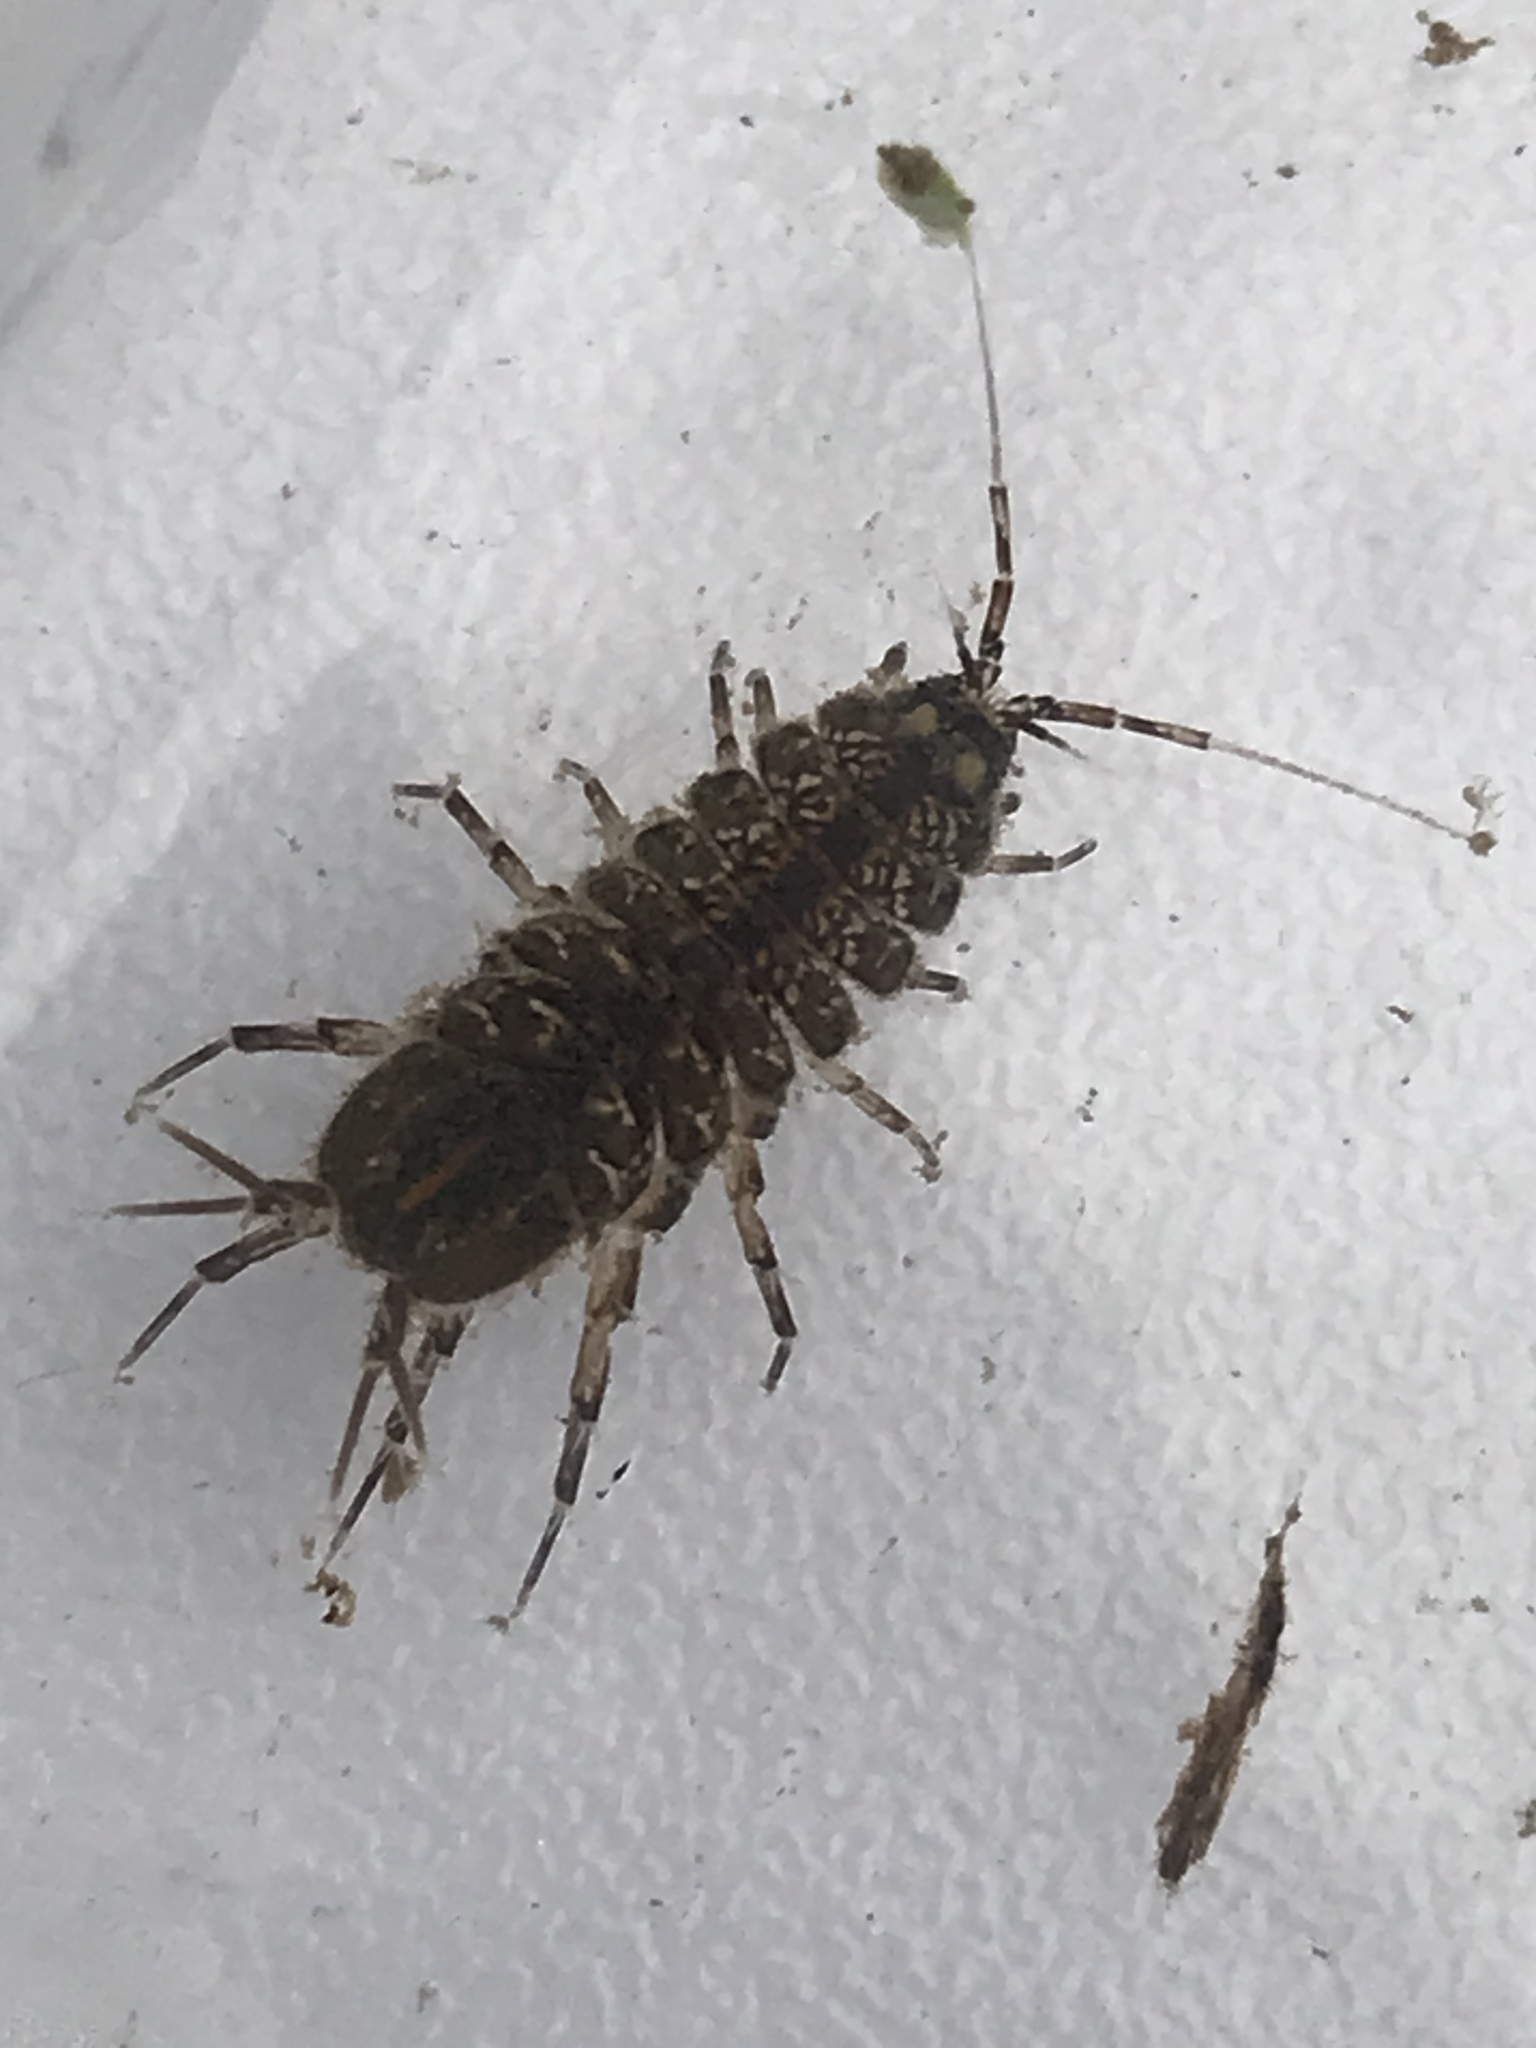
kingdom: Animalia
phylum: Arthropoda
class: Malacostraca
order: Isopoda
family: Asellidae
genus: Asellus
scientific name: Asellus aquaticus
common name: Water hog lice/slaters
